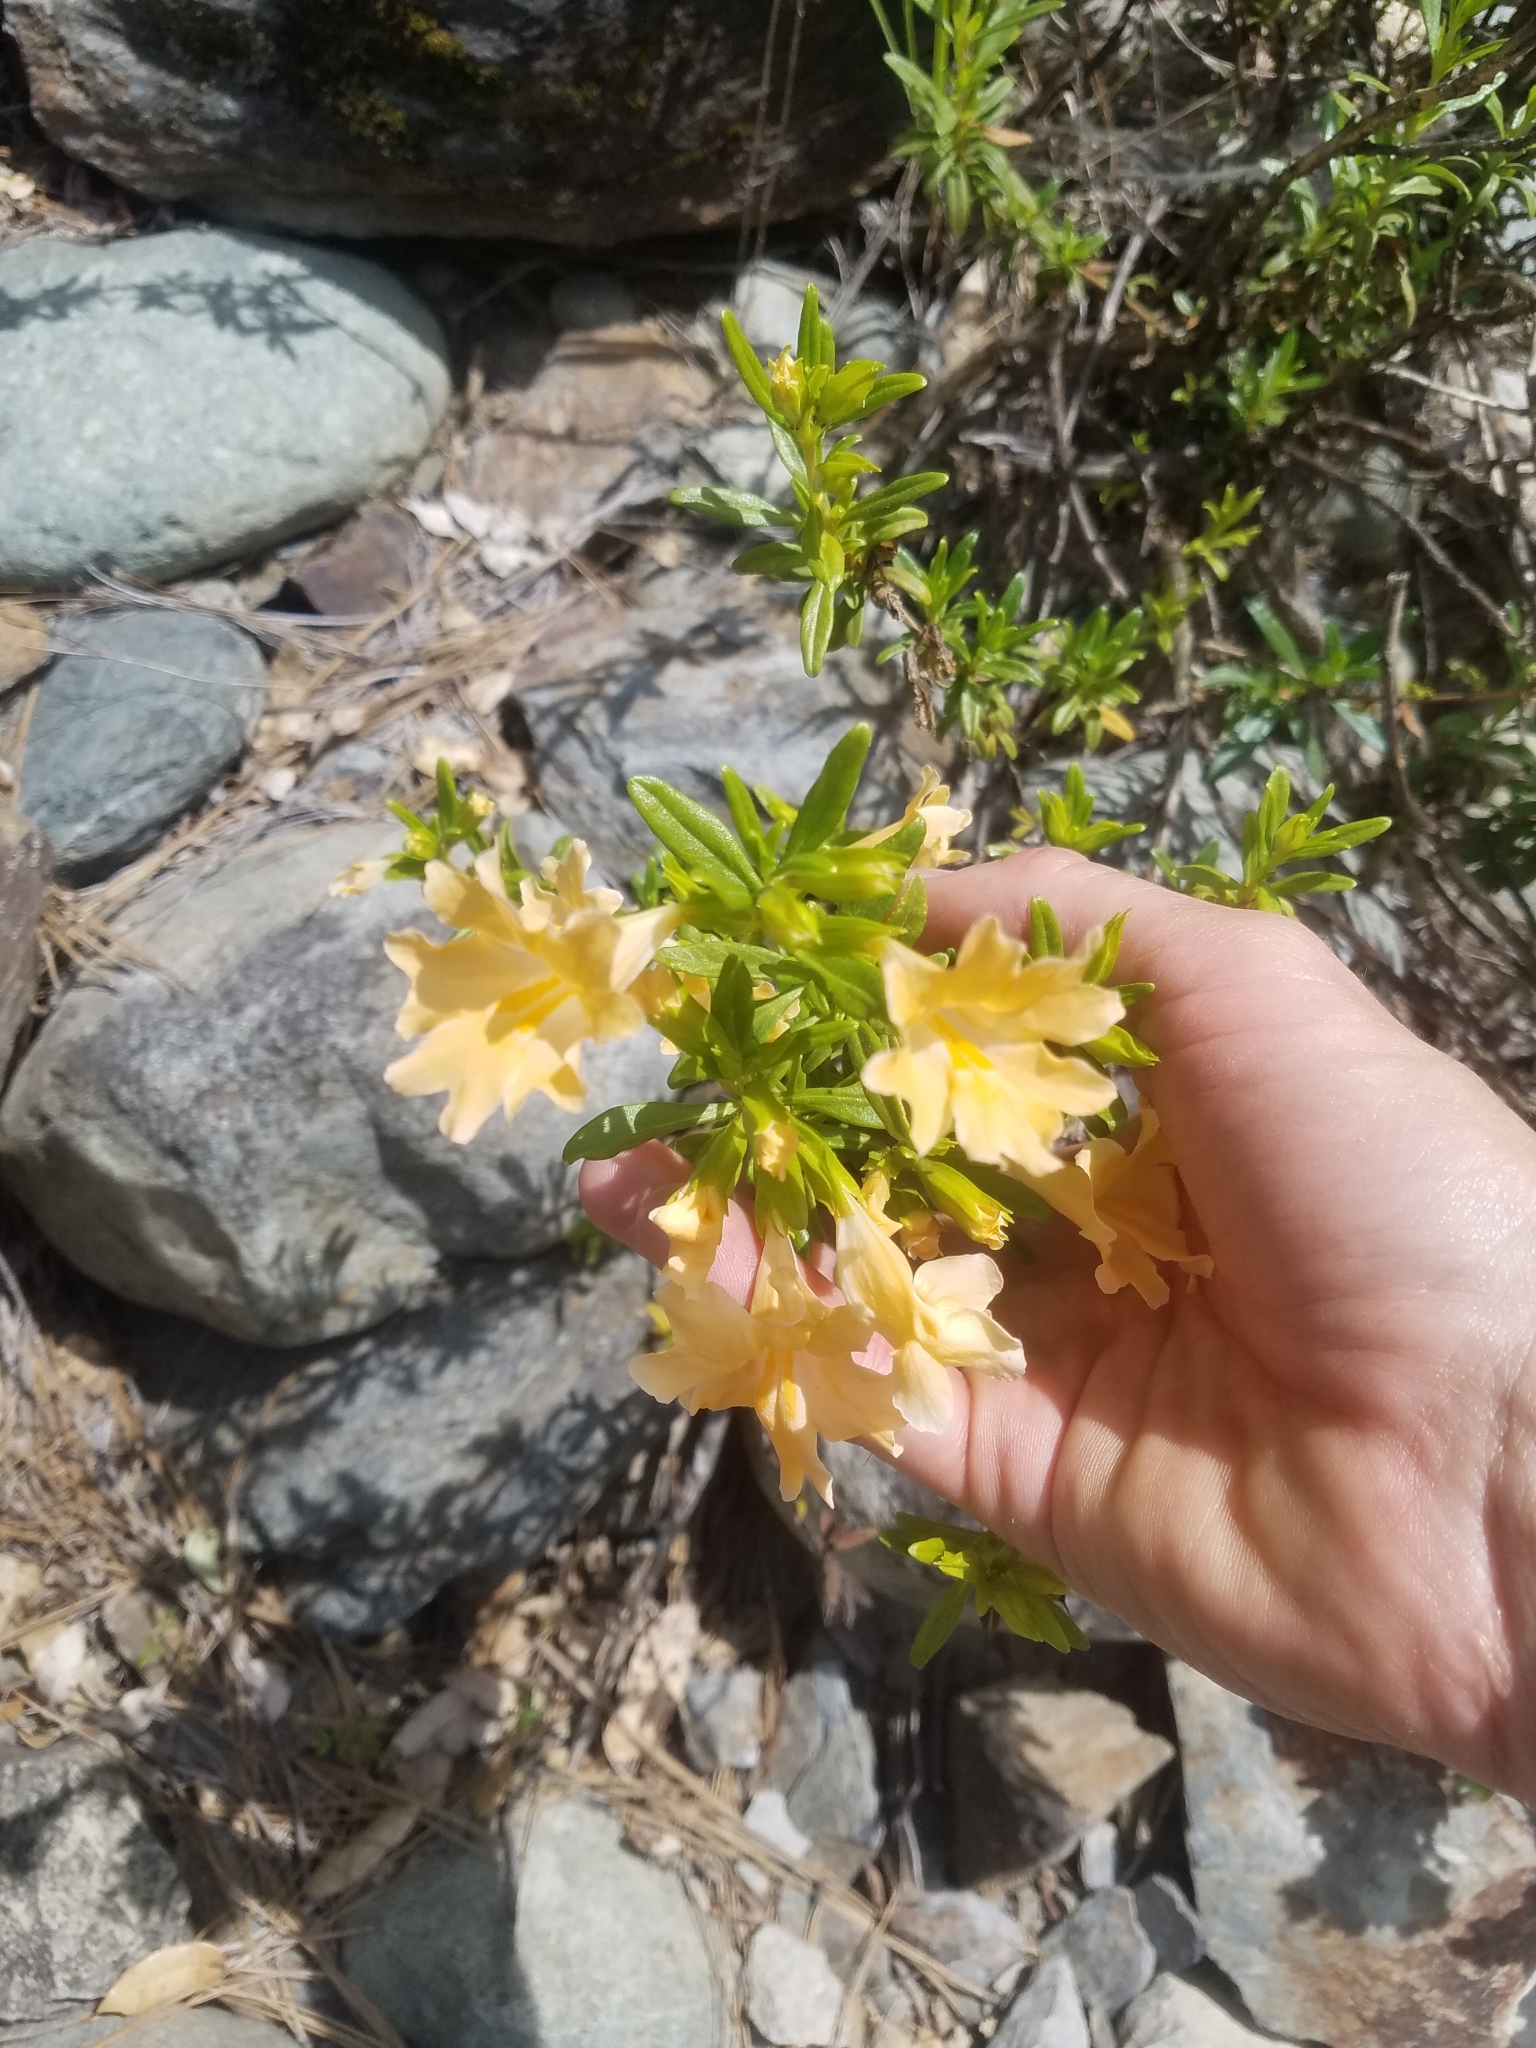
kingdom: Plantae
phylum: Tracheophyta
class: Magnoliopsida
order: Lamiales
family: Phrymaceae
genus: Diplacus
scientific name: Diplacus grandiflorus
